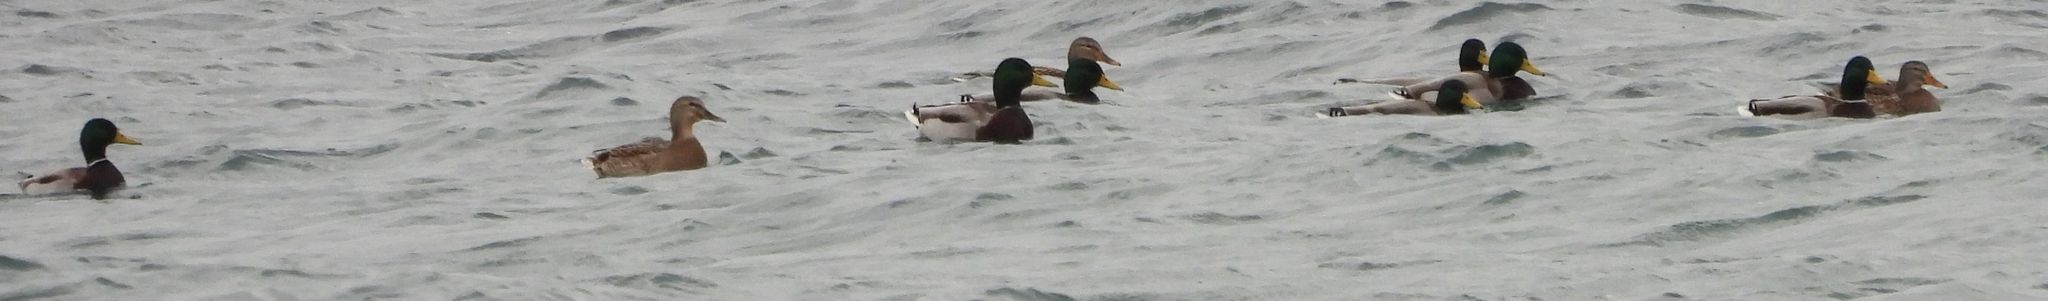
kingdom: Animalia
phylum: Chordata
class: Aves
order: Anseriformes
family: Anatidae
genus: Anas
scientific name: Anas platyrhynchos
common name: Mallard
